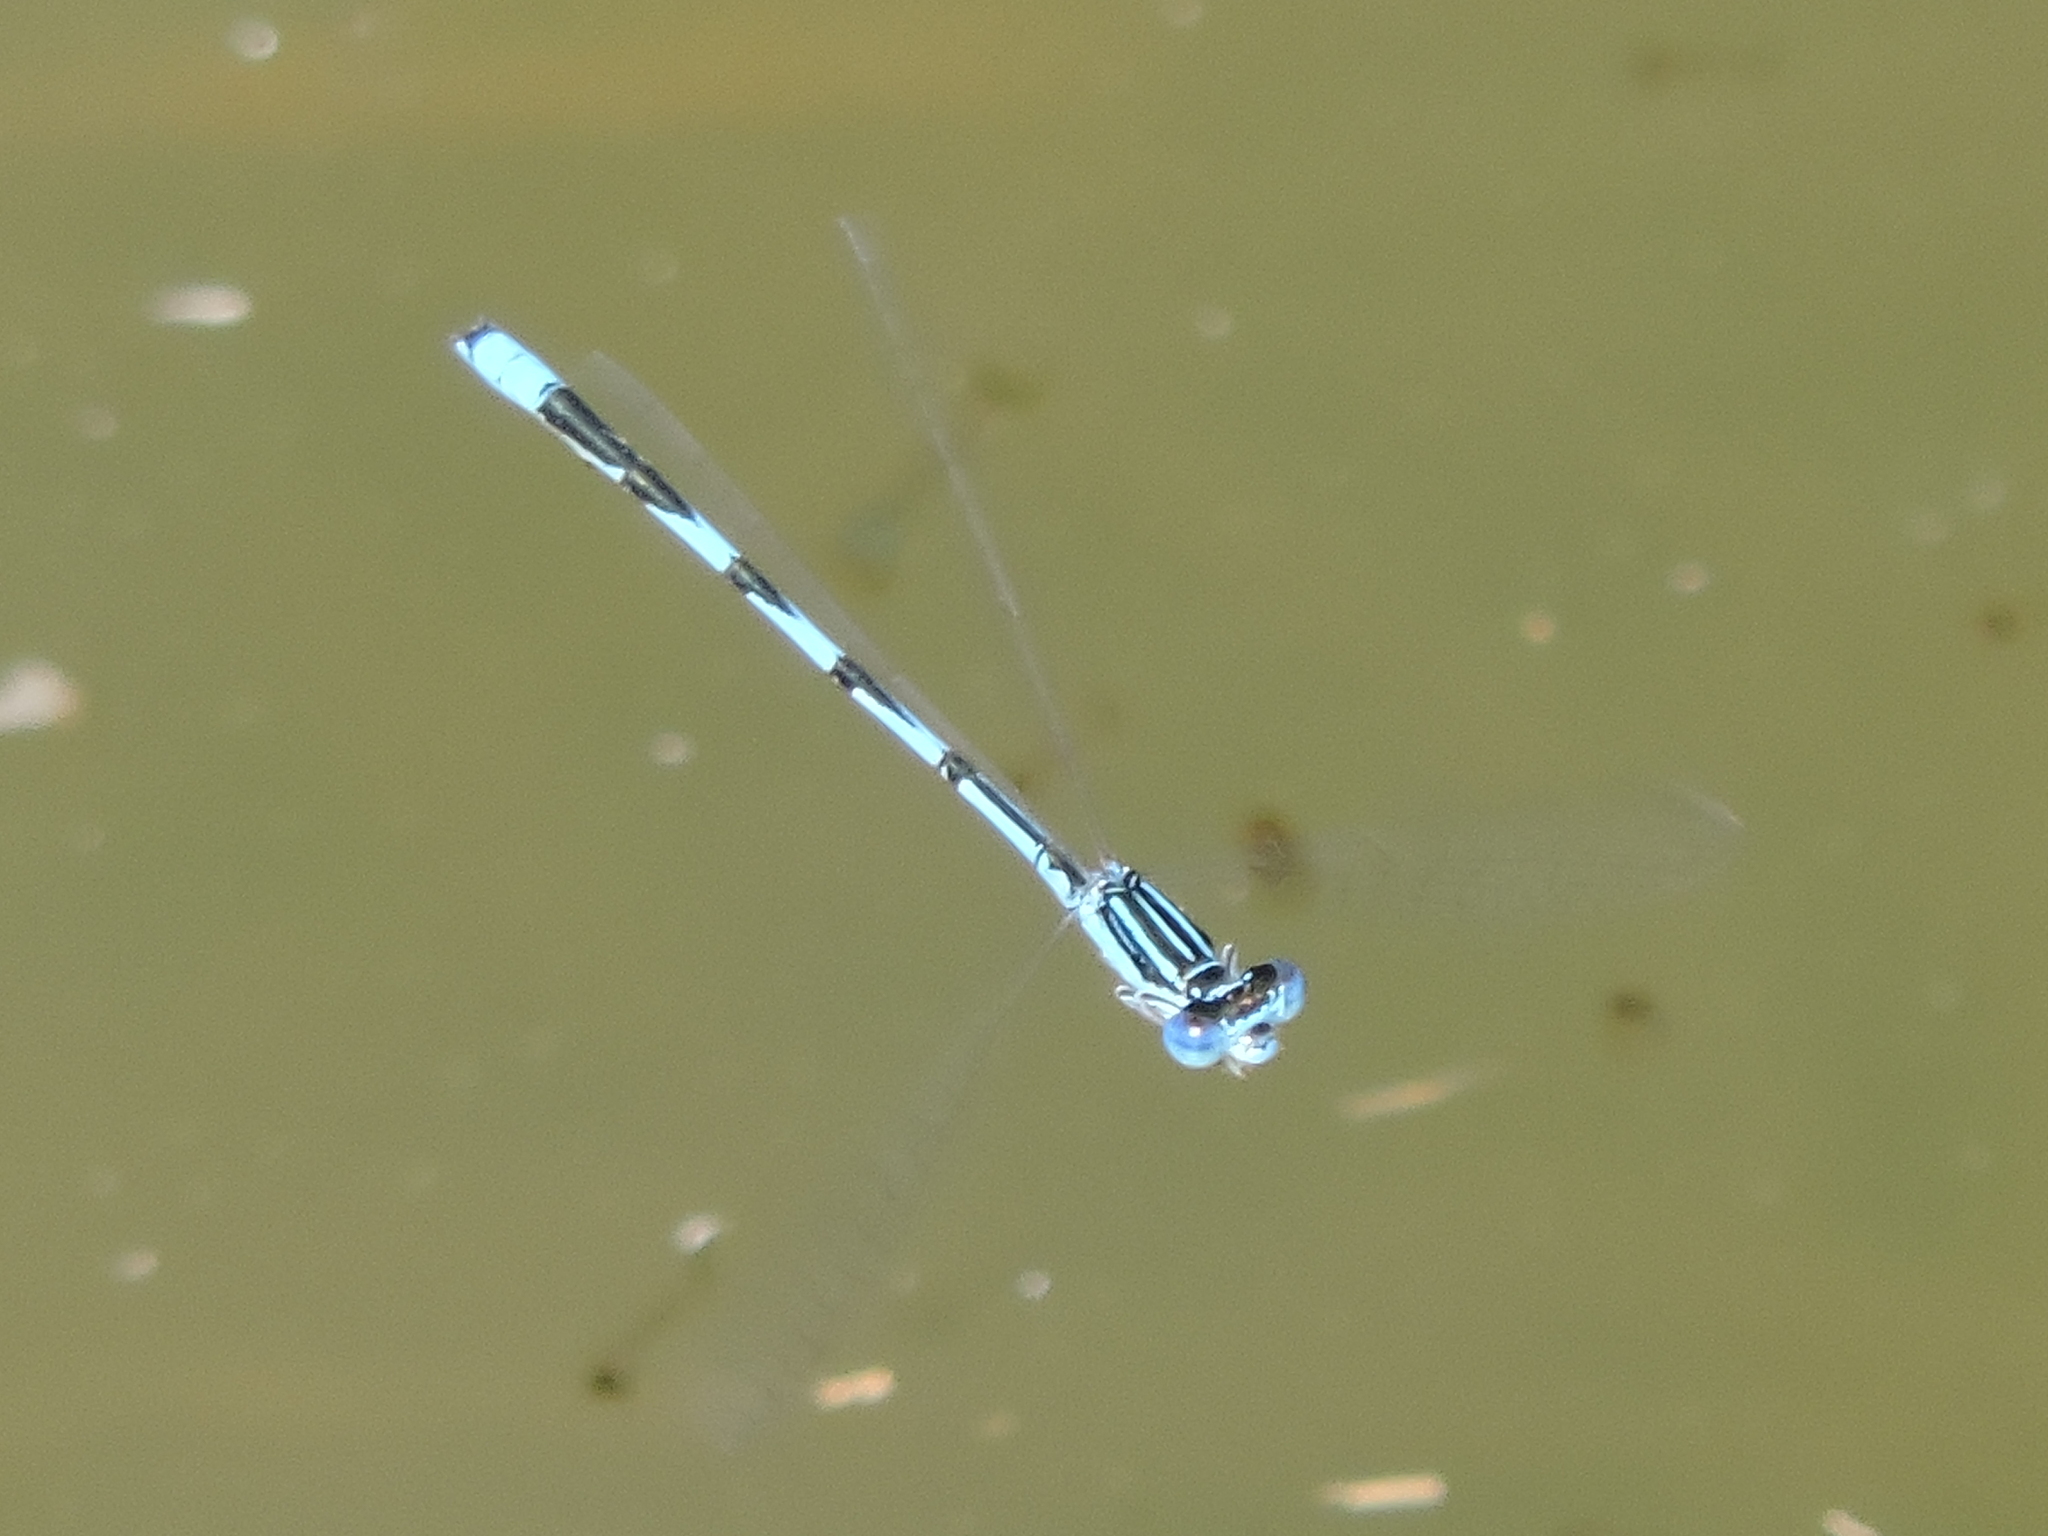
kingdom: Animalia
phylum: Arthropoda
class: Insecta
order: Odonata
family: Coenagrionidae
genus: Enallagma
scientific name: Enallagma basidens
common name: Double-striped bluet
